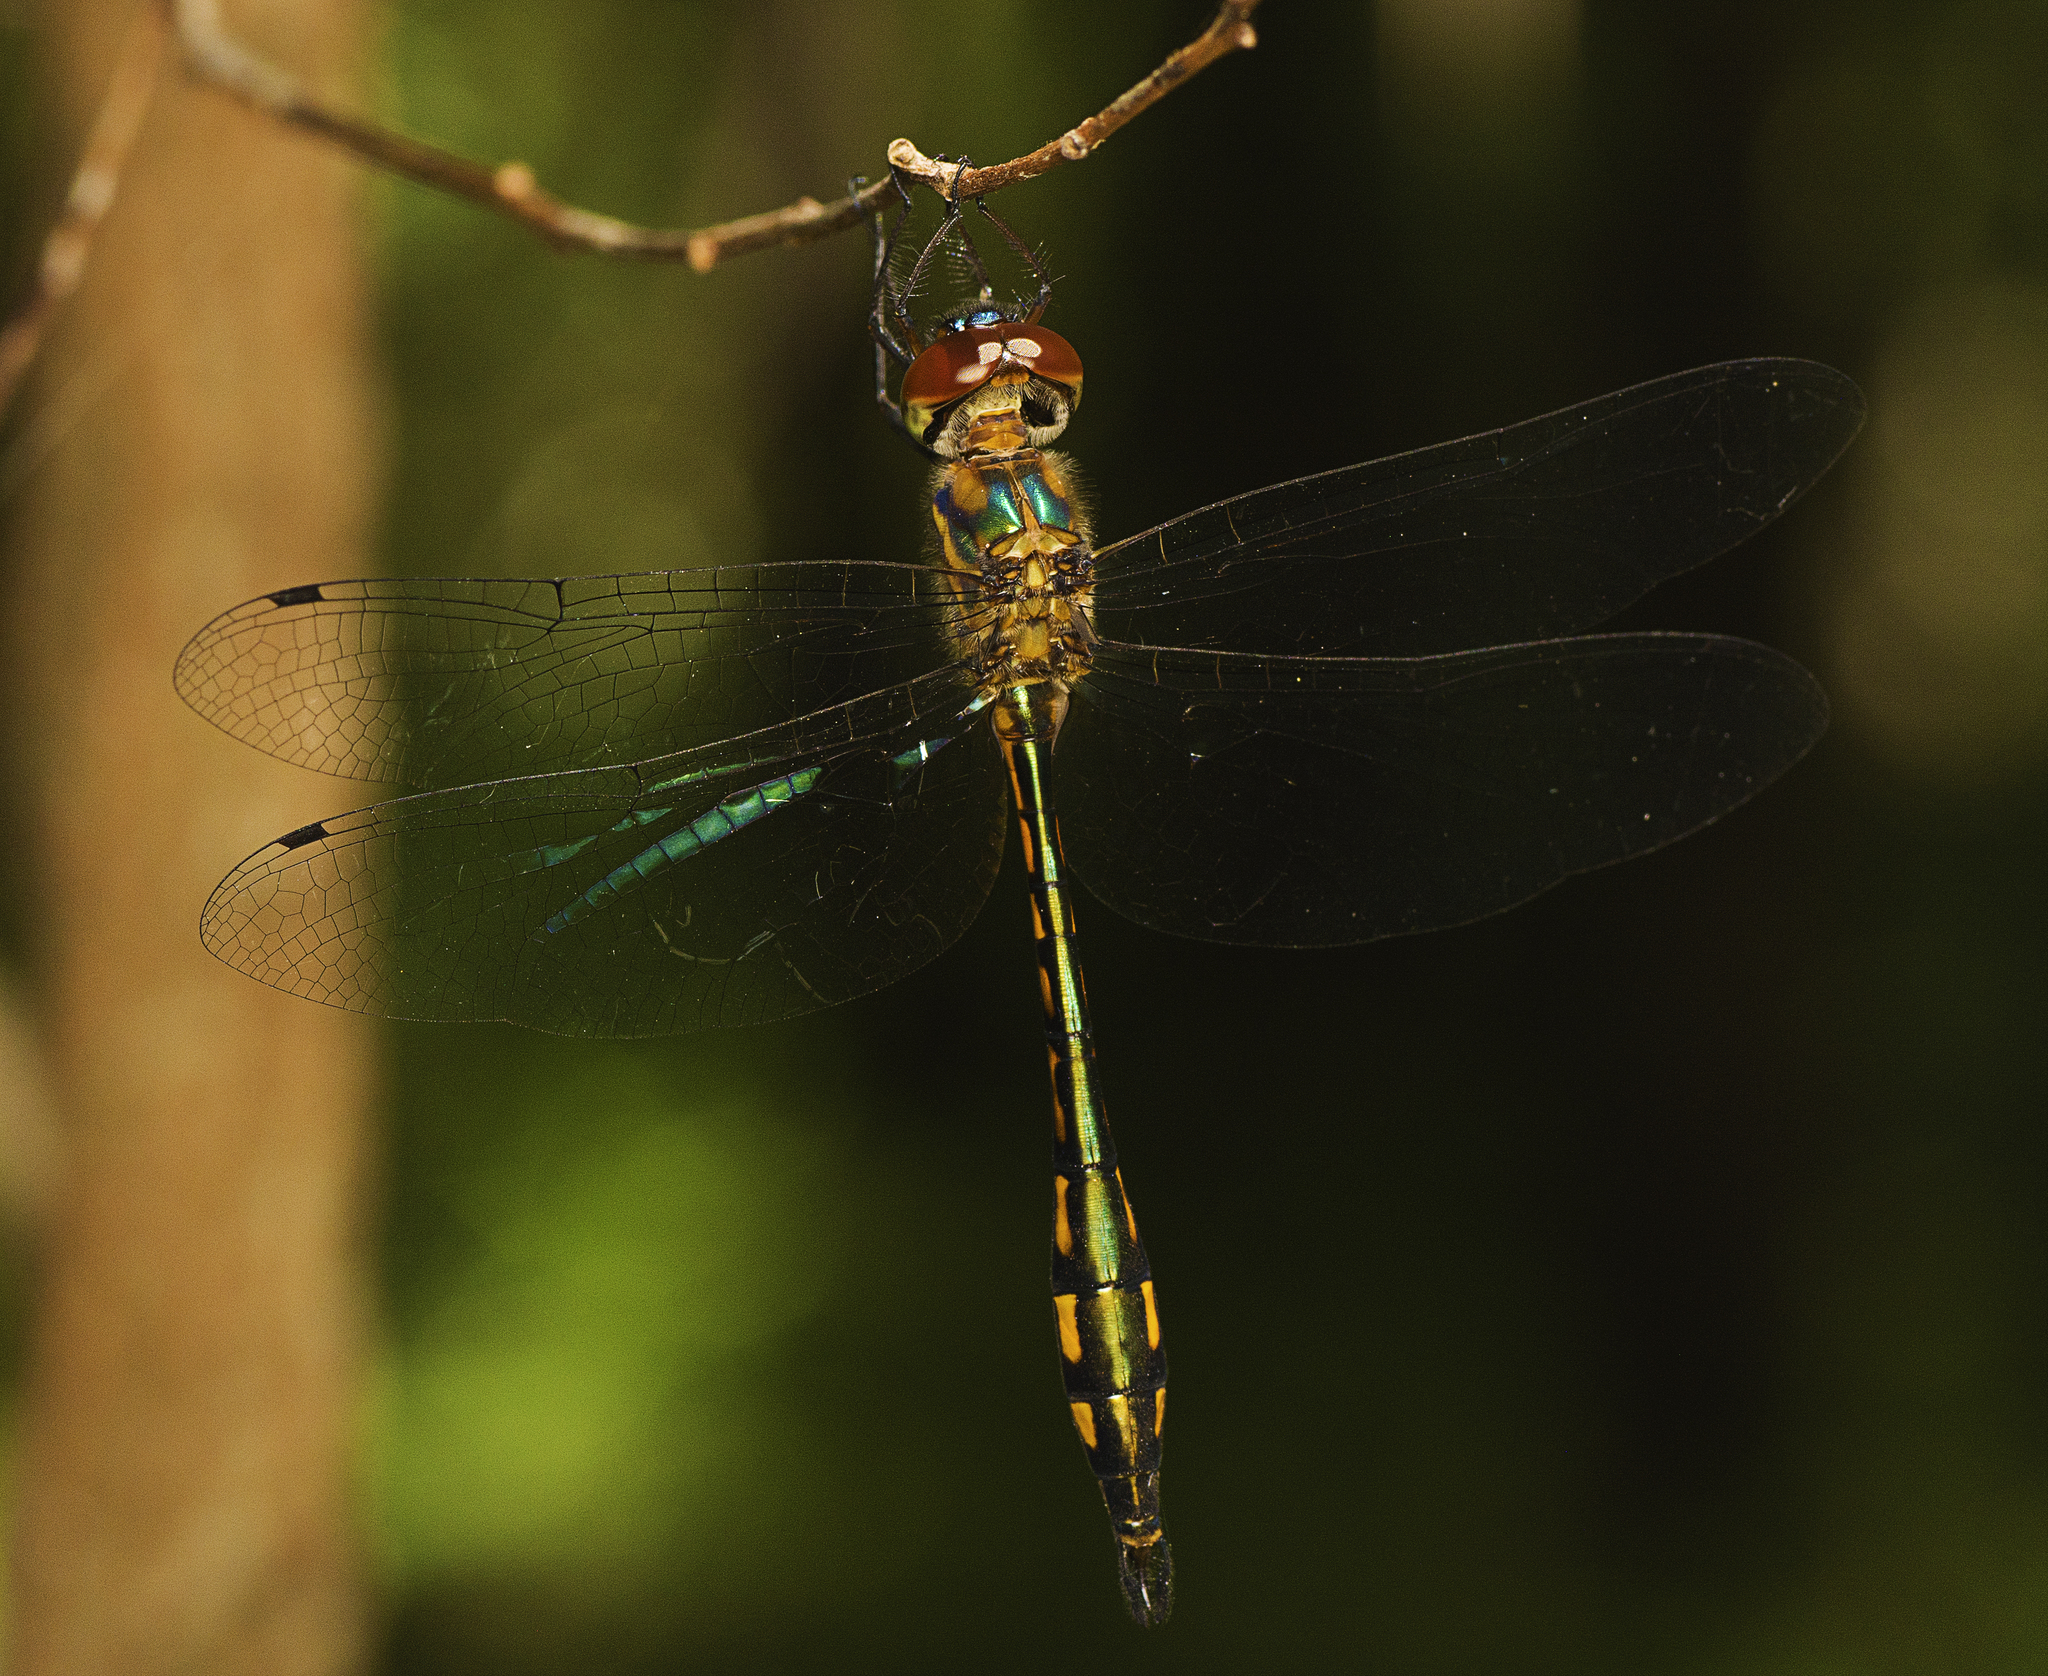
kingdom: Animalia
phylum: Arthropoda
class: Insecta
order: Odonata
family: Corduliidae
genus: Hemicordulia
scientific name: Hemicordulia continentalis
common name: Fat-bellied emerald
